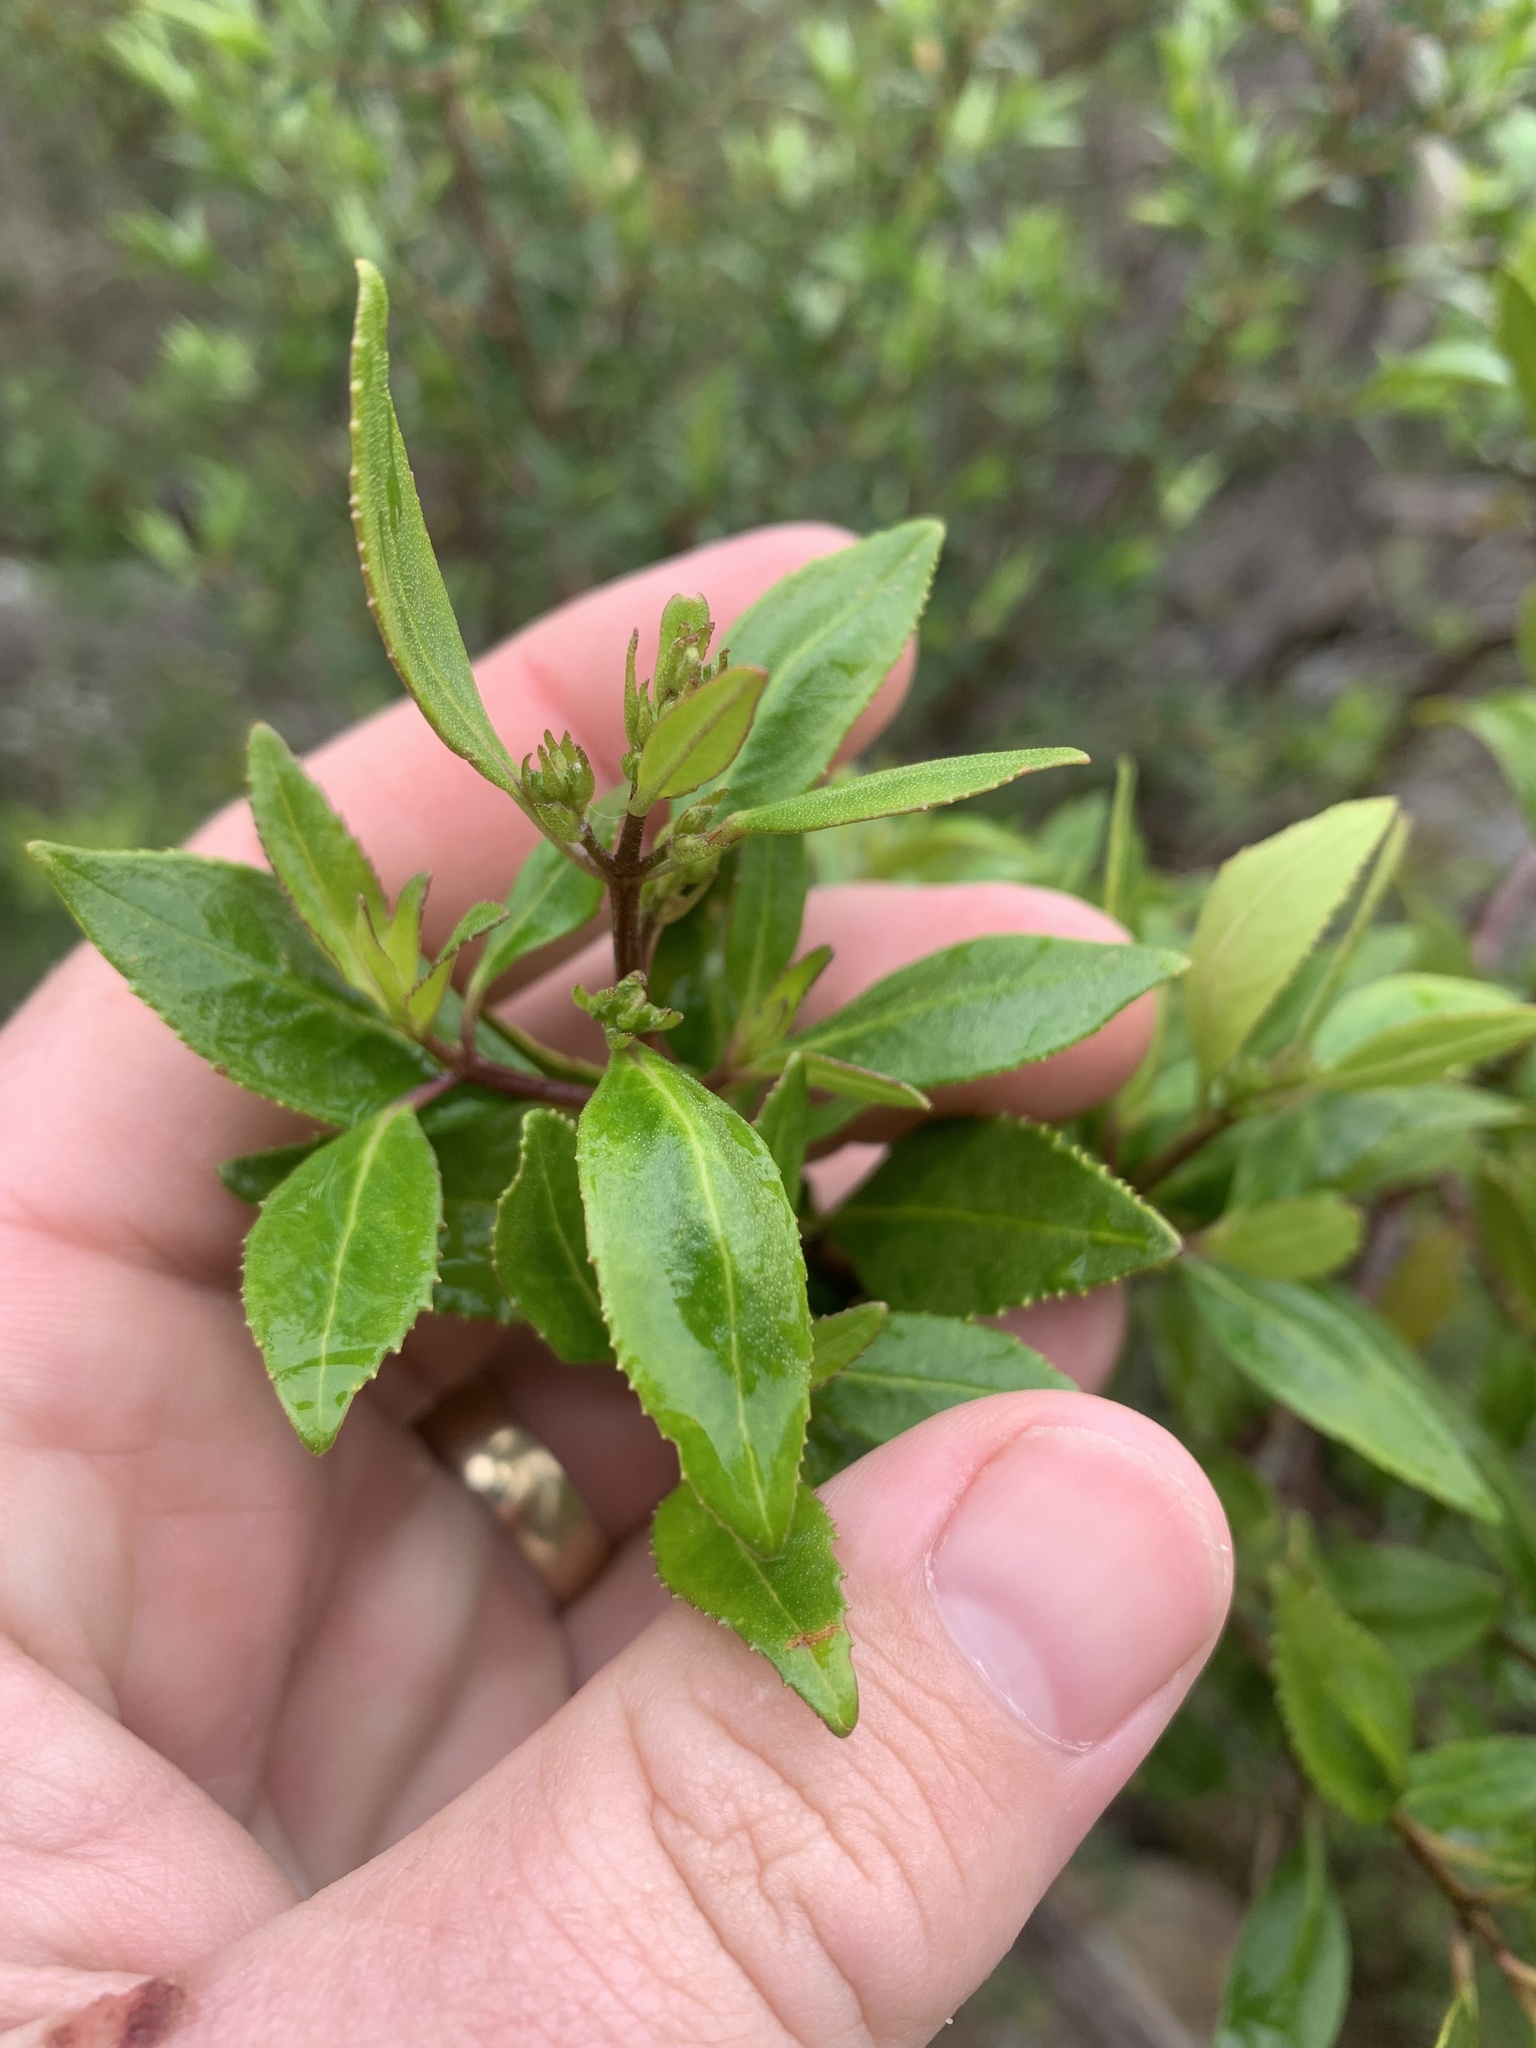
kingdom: Plantae
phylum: Tracheophyta
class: Magnoliopsida
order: Lamiales
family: Lamiaceae
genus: Prostanthera
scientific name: Prostanthera lasianthos
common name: Mountain-lilac
